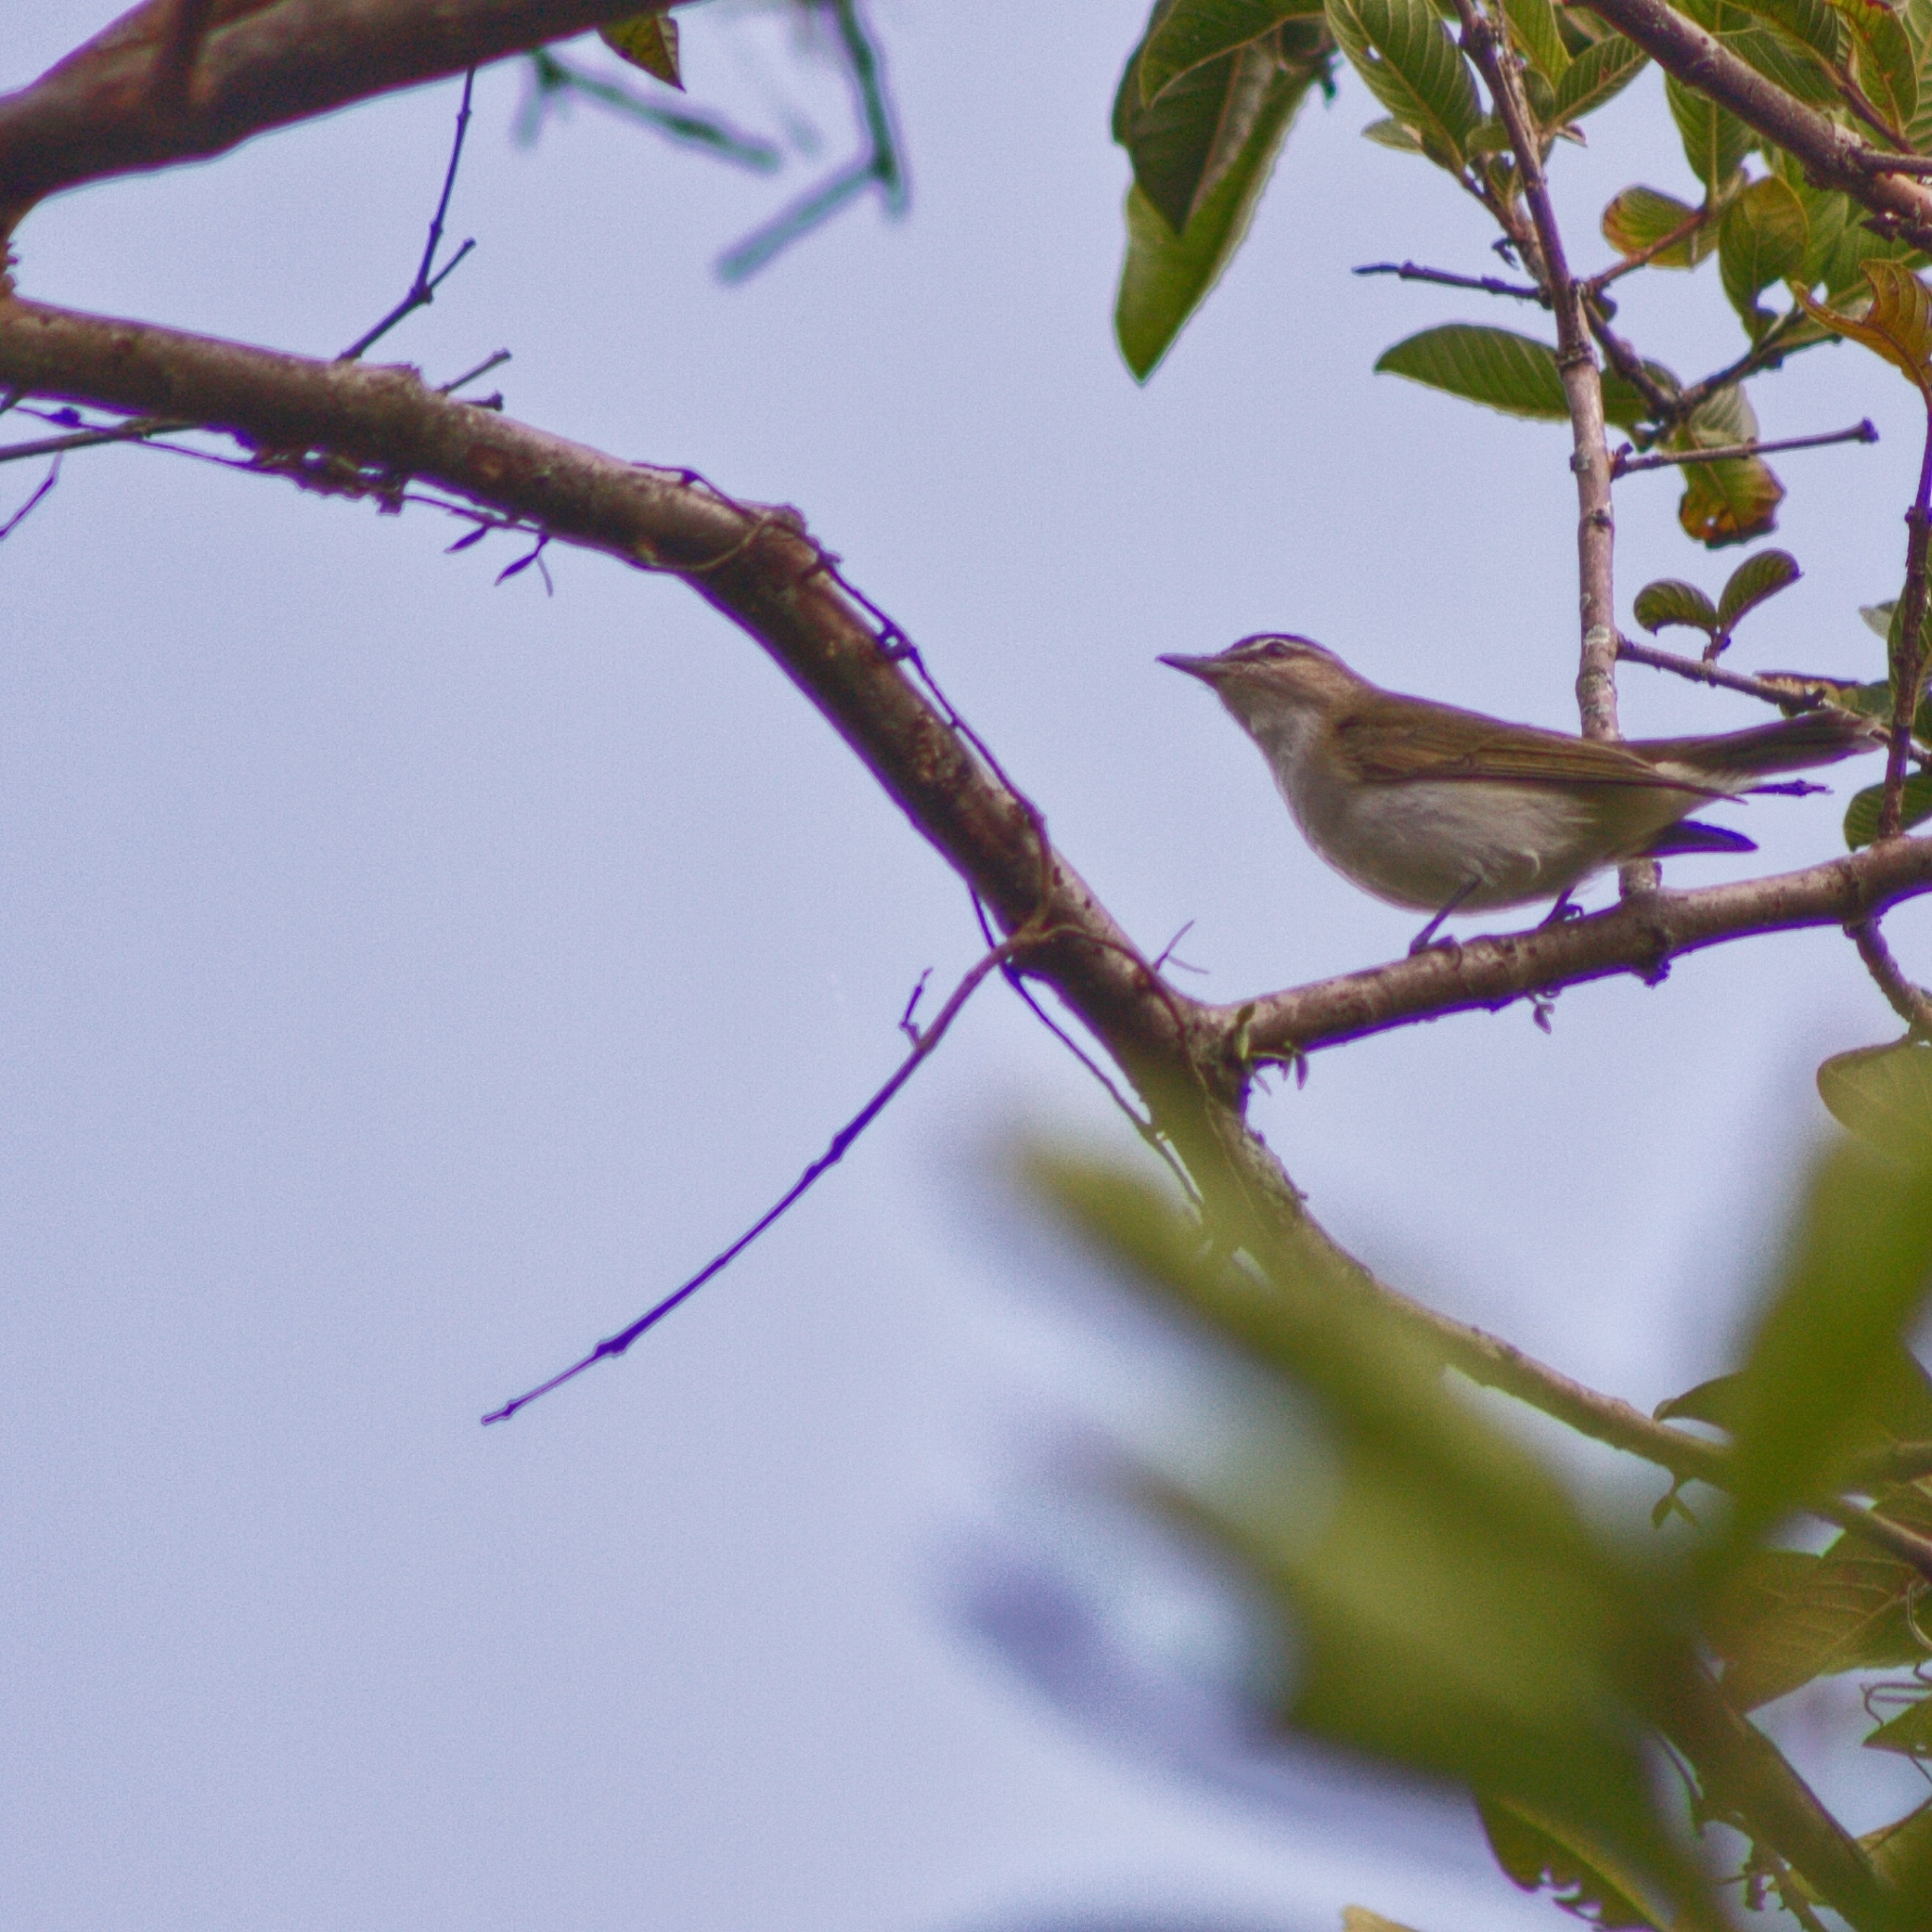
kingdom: Animalia
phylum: Chordata
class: Aves
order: Passeriformes
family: Vireonidae
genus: Vireo
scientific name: Vireo olivaceus
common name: Red-eyed vireo
